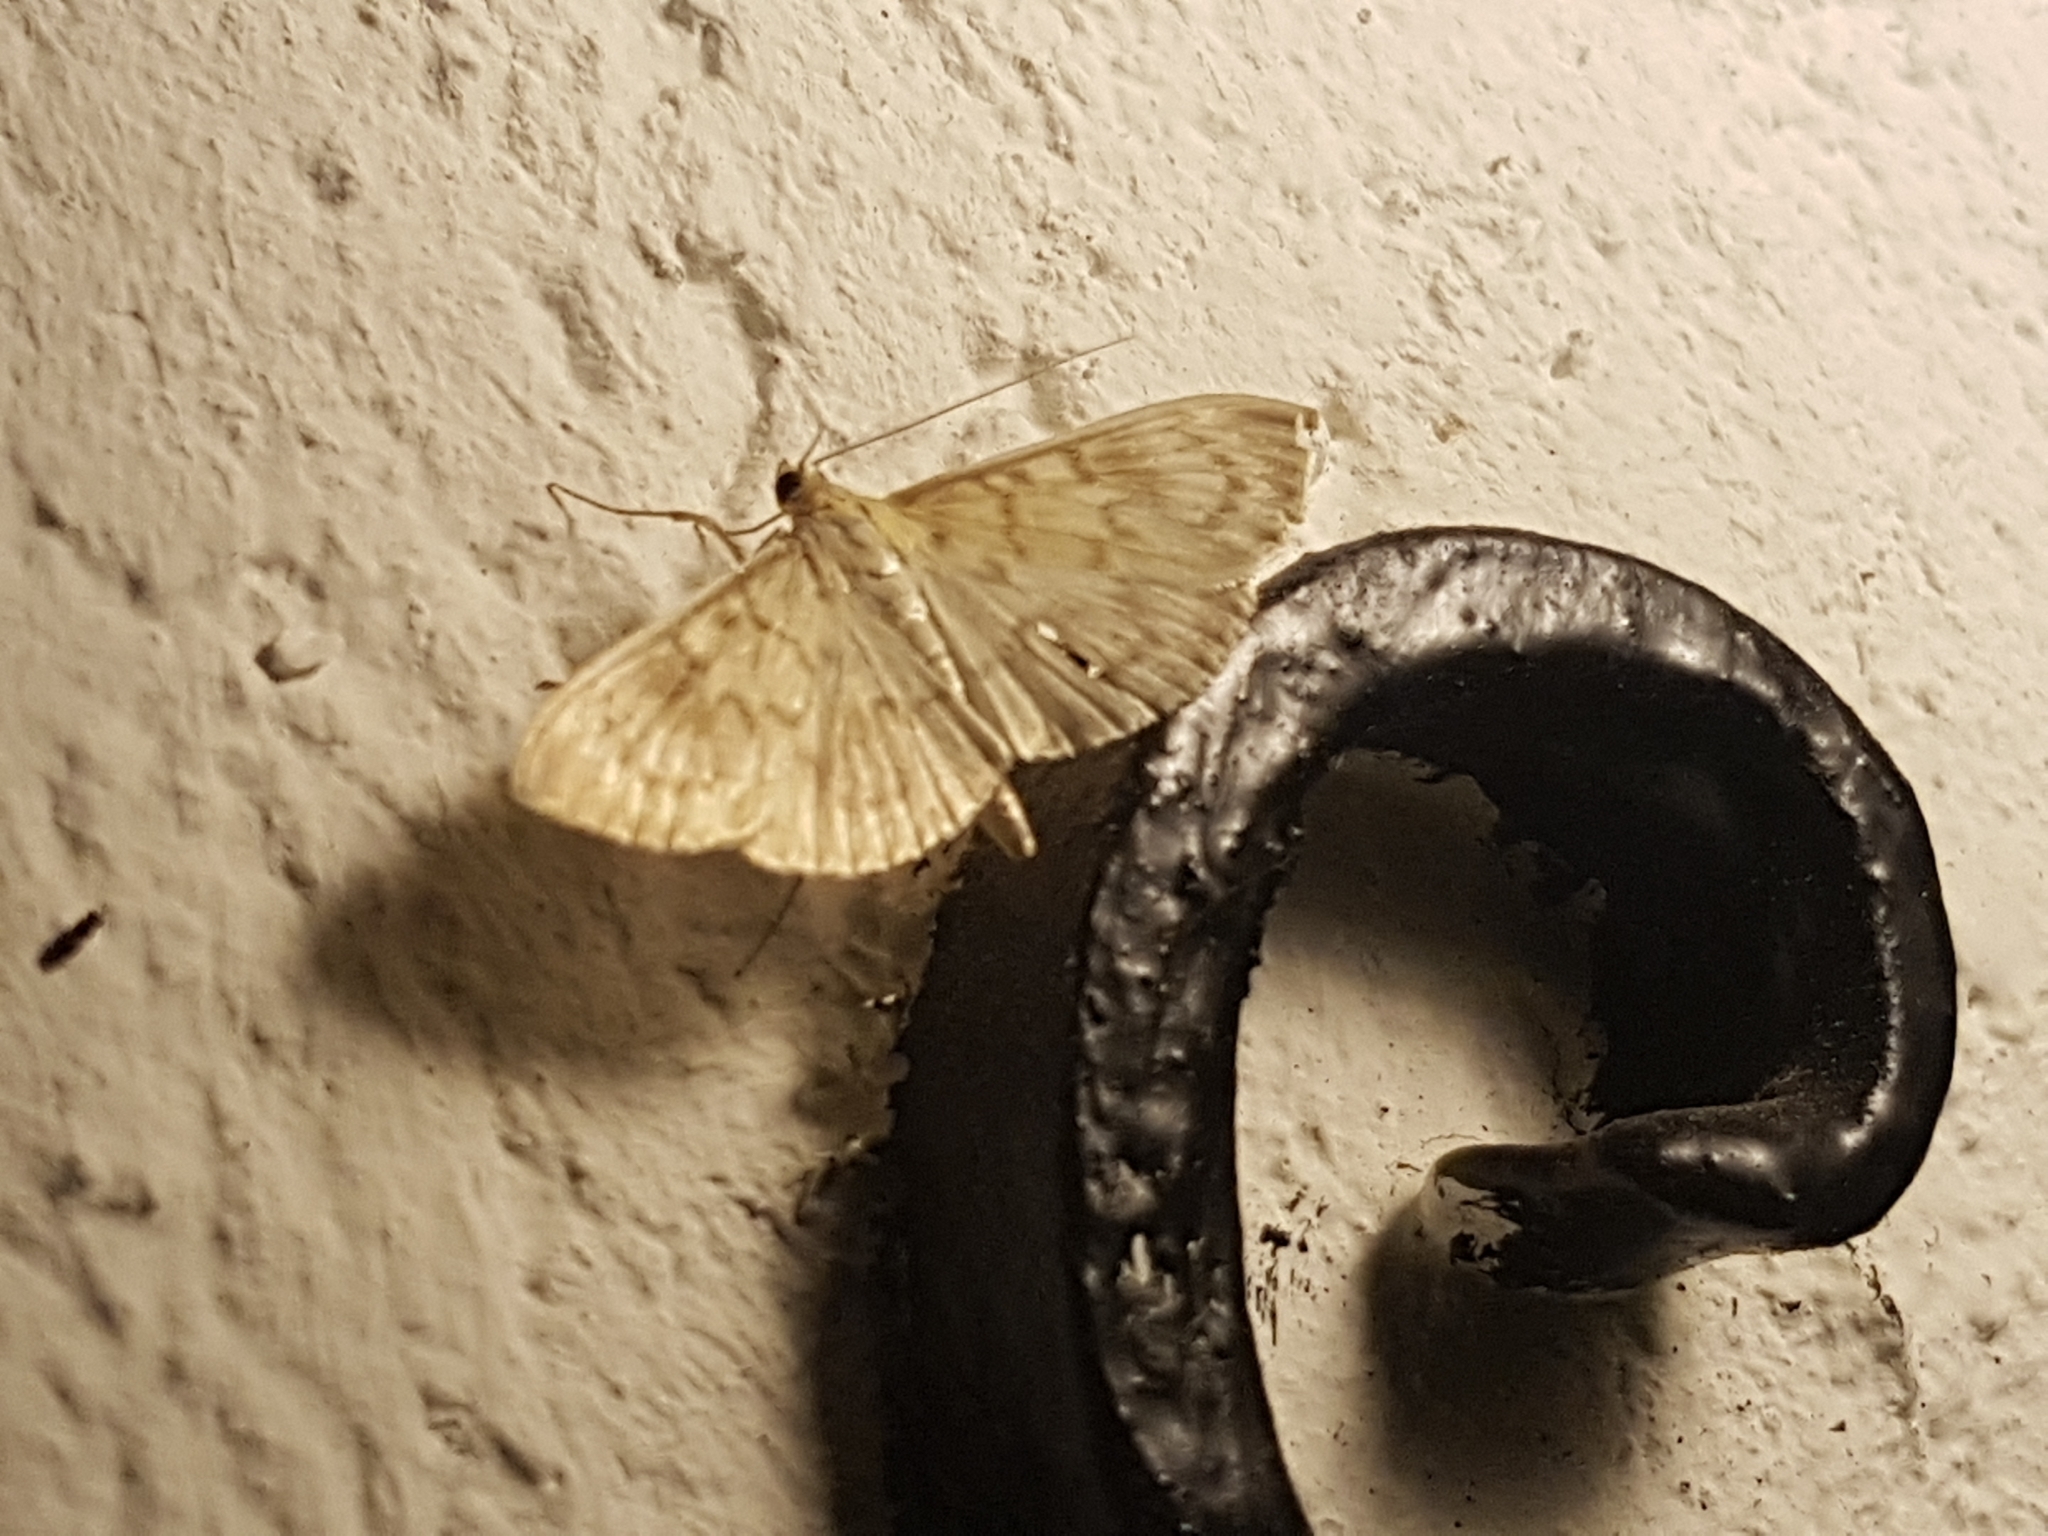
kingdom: Animalia
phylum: Arthropoda
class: Insecta
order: Lepidoptera
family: Crambidae
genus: Patania
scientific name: Patania ruralis
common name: Mother of pearl
